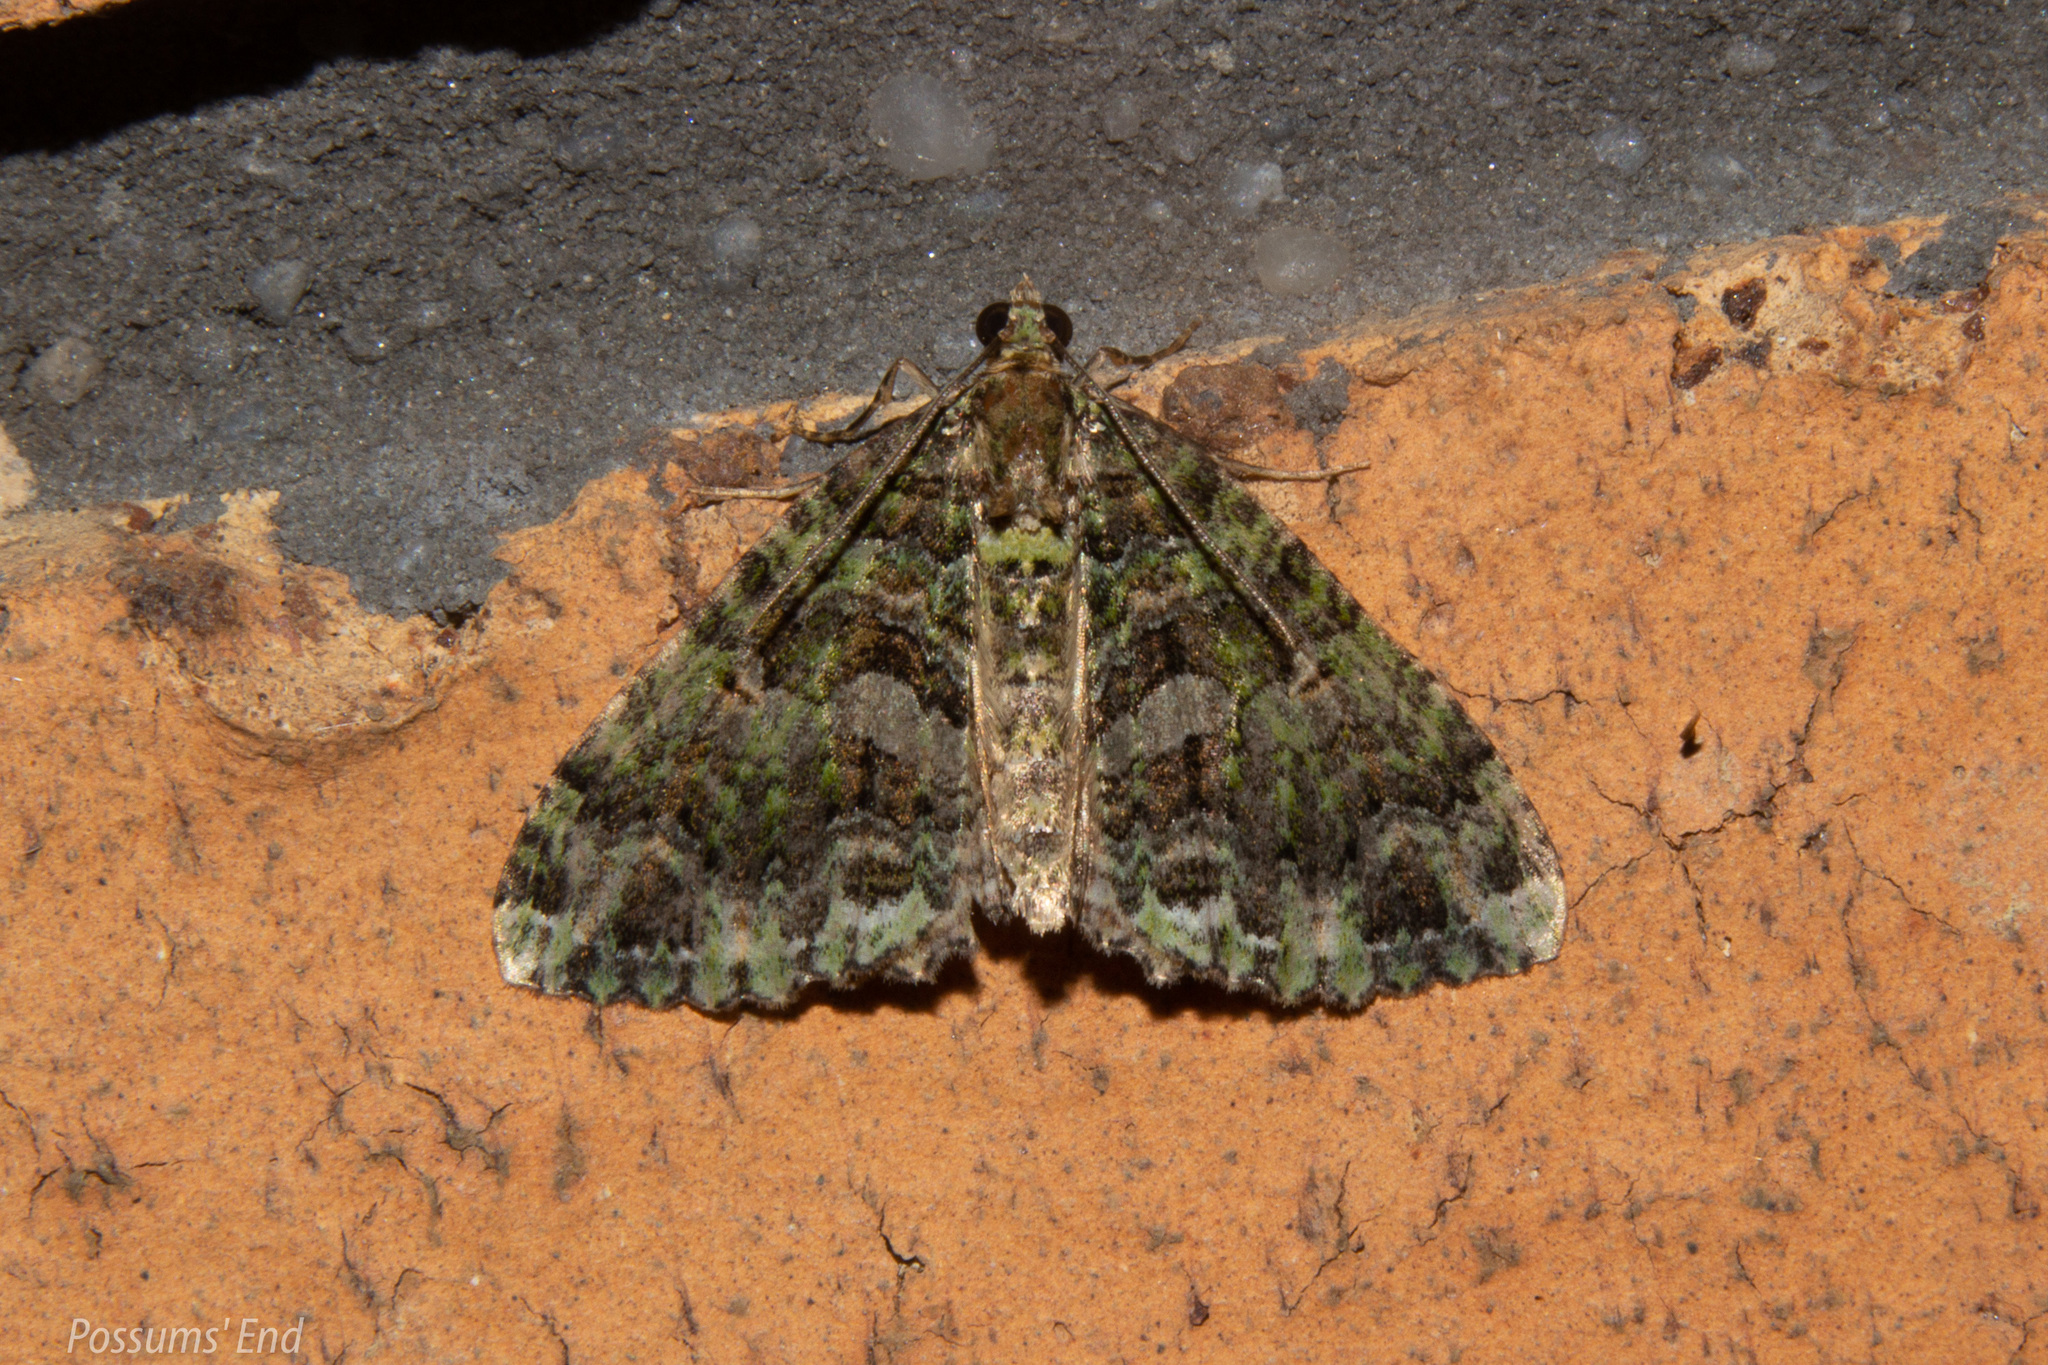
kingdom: Animalia
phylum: Arthropoda
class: Insecta
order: Lepidoptera
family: Geometridae
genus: Austrocidaria
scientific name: Austrocidaria similata
